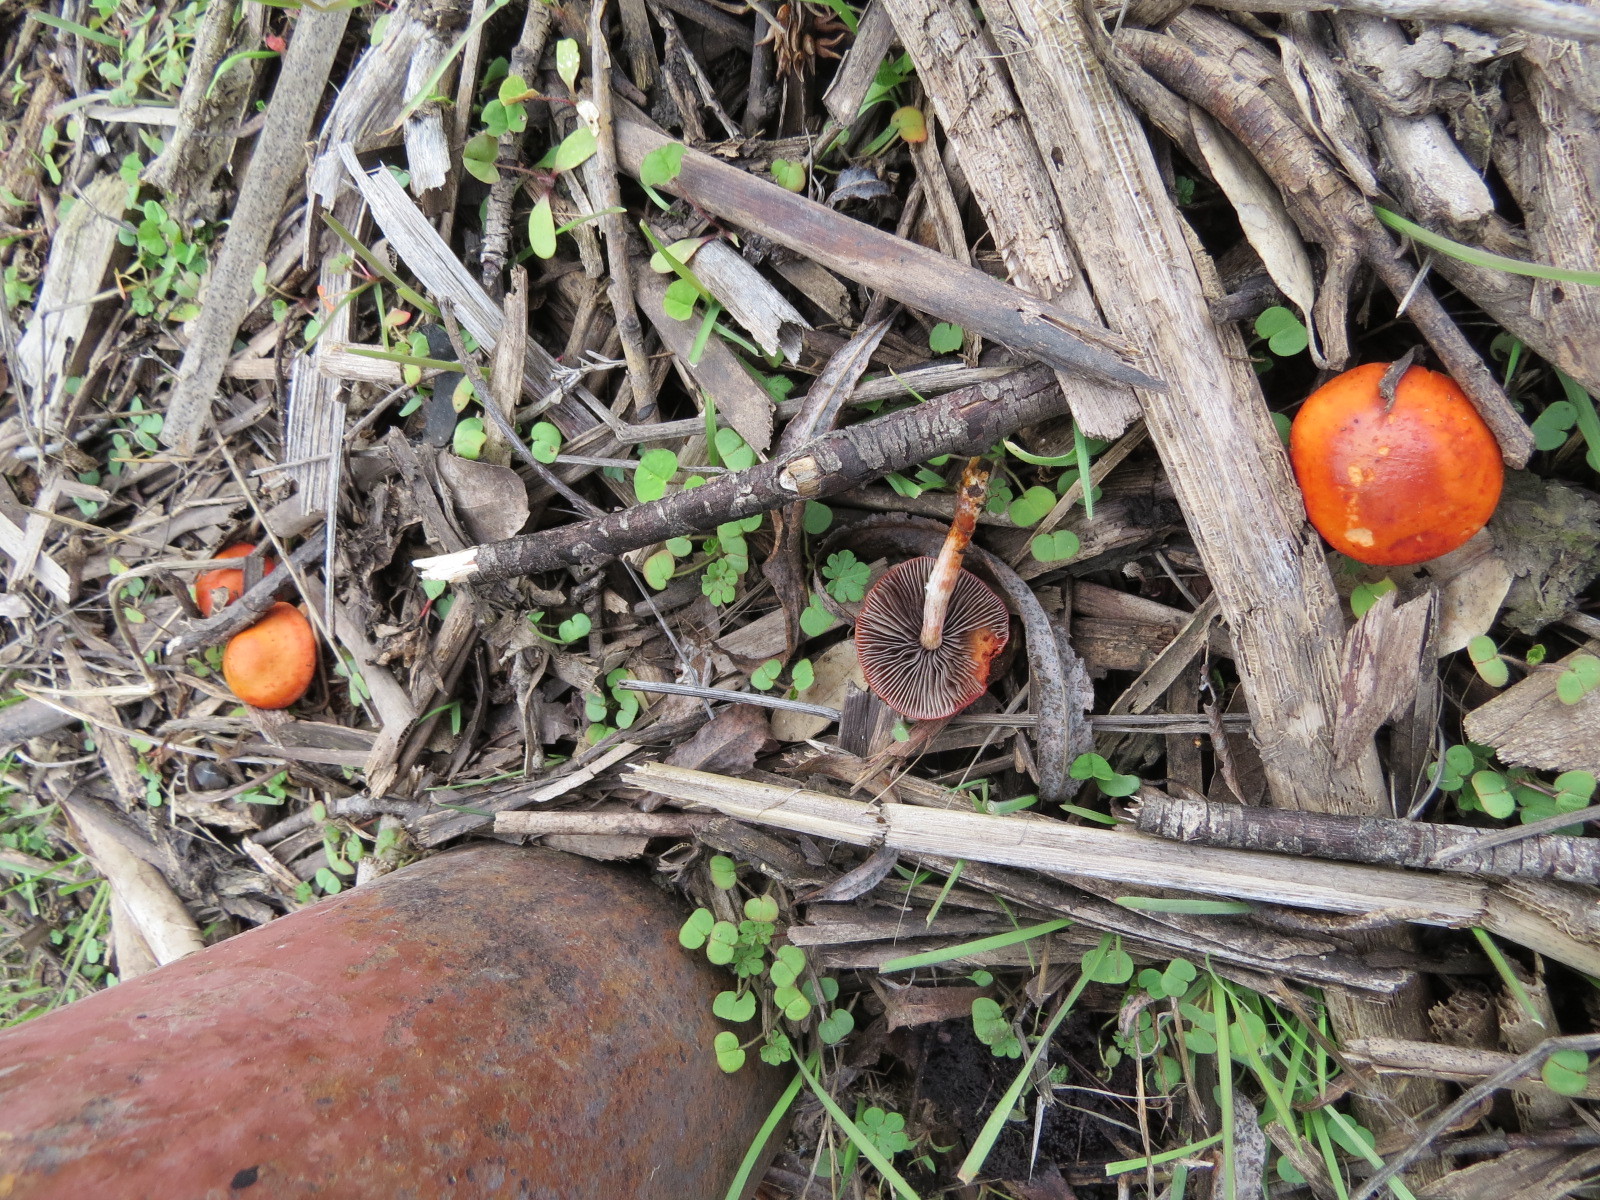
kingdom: Fungi
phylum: Basidiomycota
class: Agaricomycetes
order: Agaricales
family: Strophariaceae
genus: Leratiomyces
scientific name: Leratiomyces ceres
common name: Redlead roundhead
